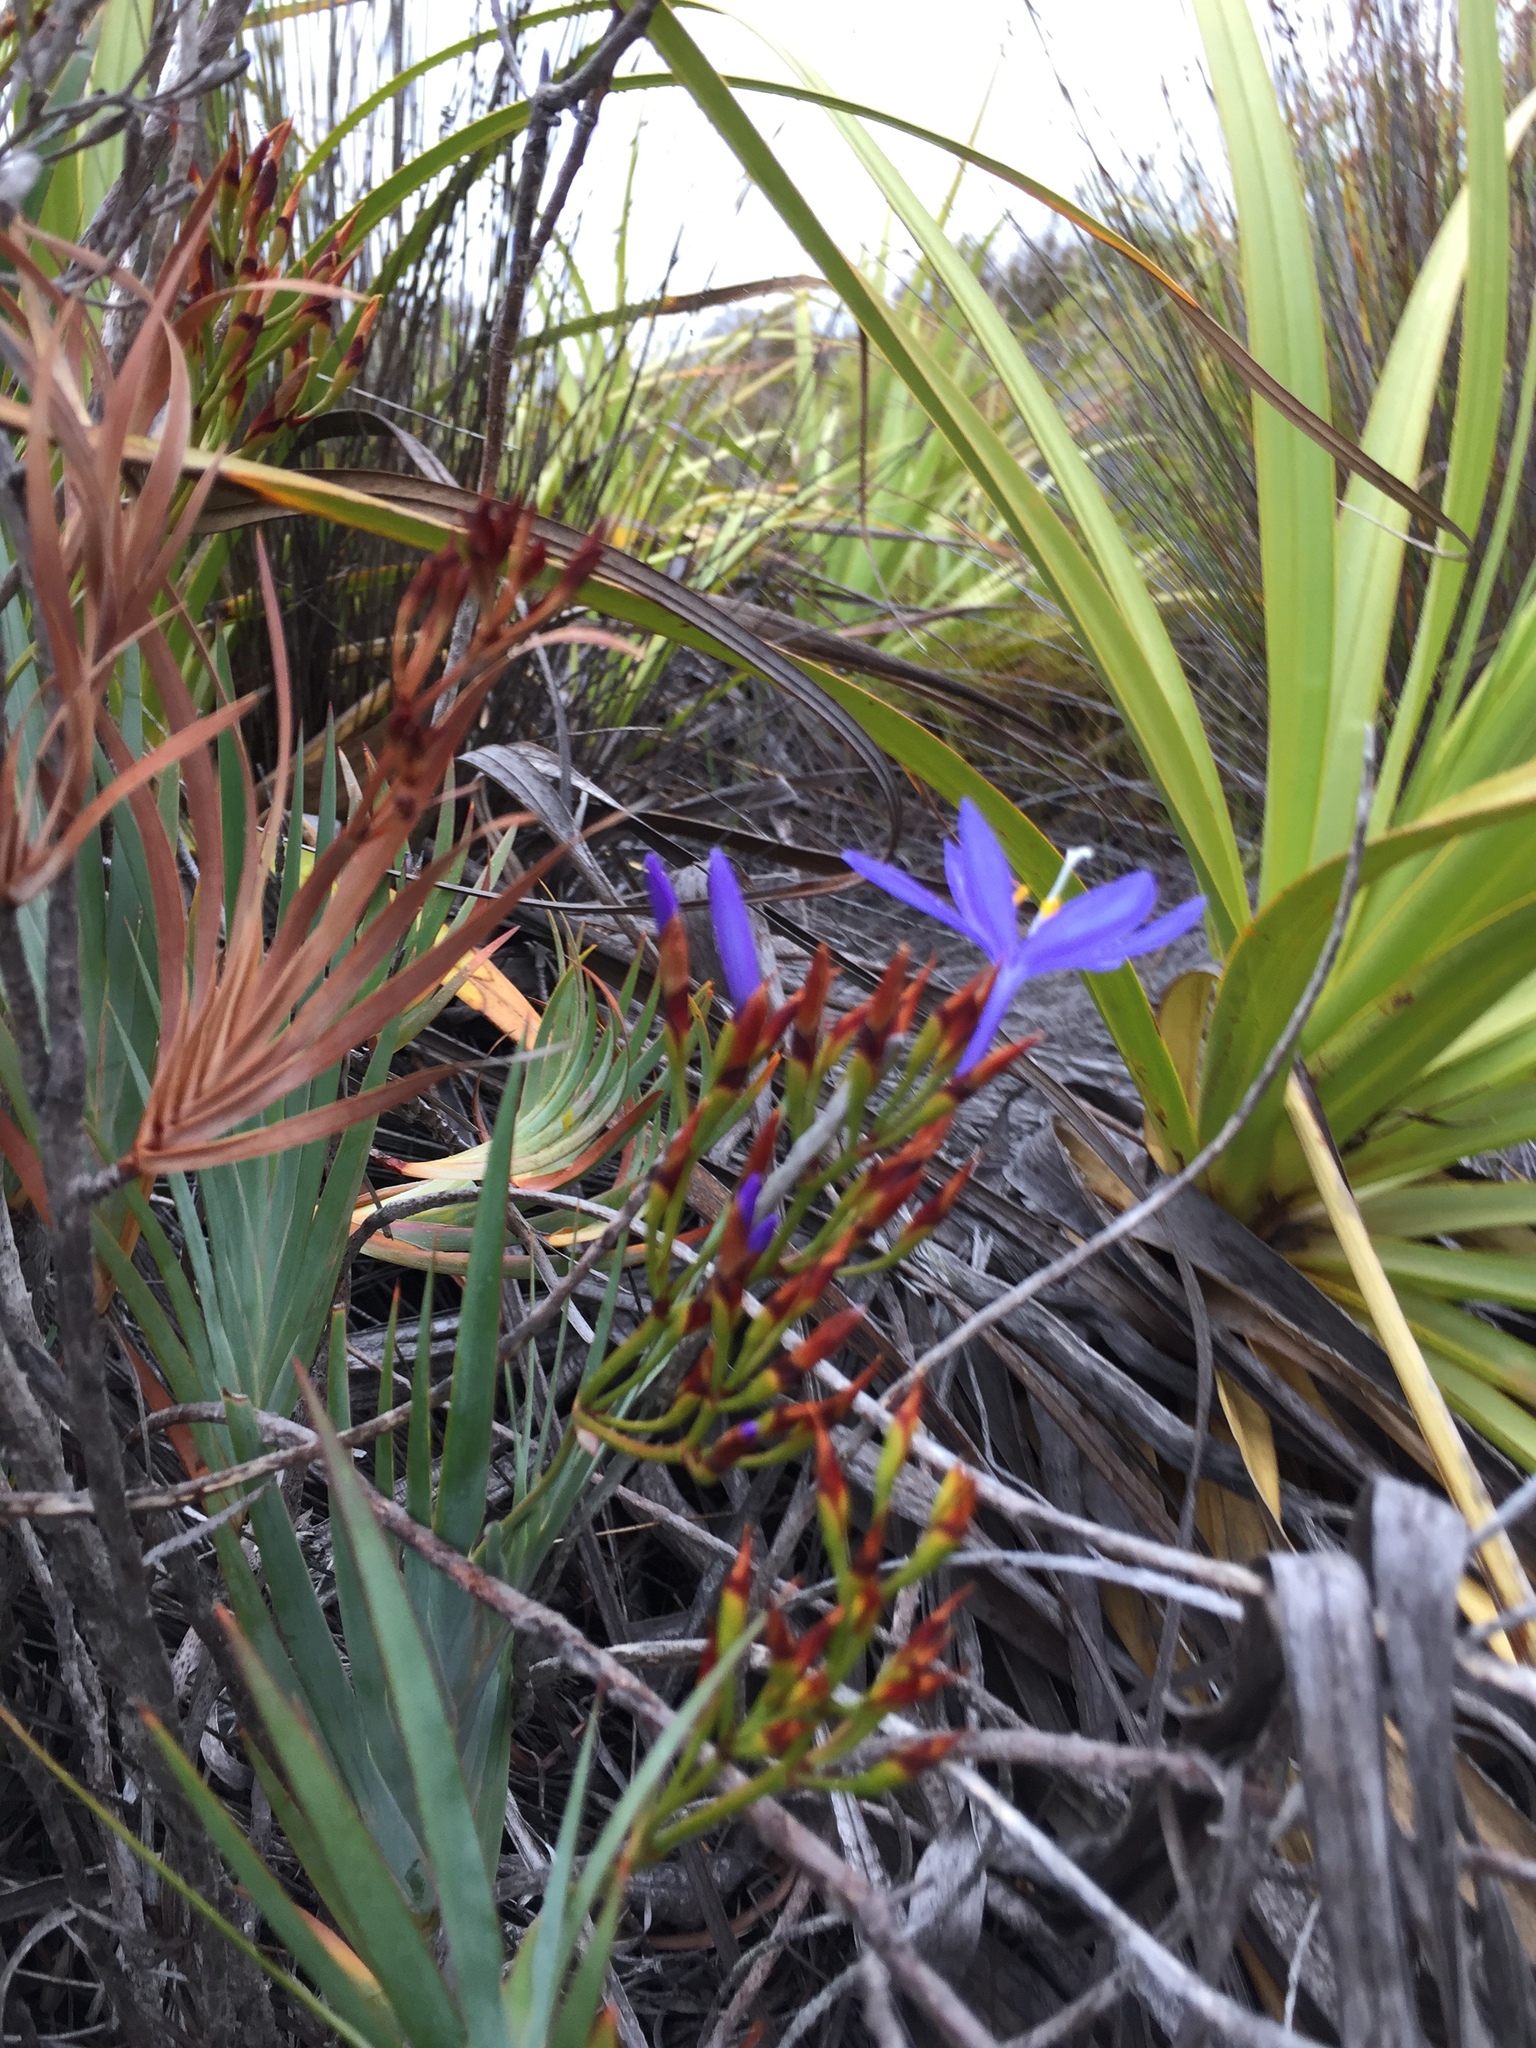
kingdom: Plantae
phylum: Tracheophyta
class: Liliopsida
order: Asparagales
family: Iridaceae
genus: Nivenia
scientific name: Nivenia stokoei
